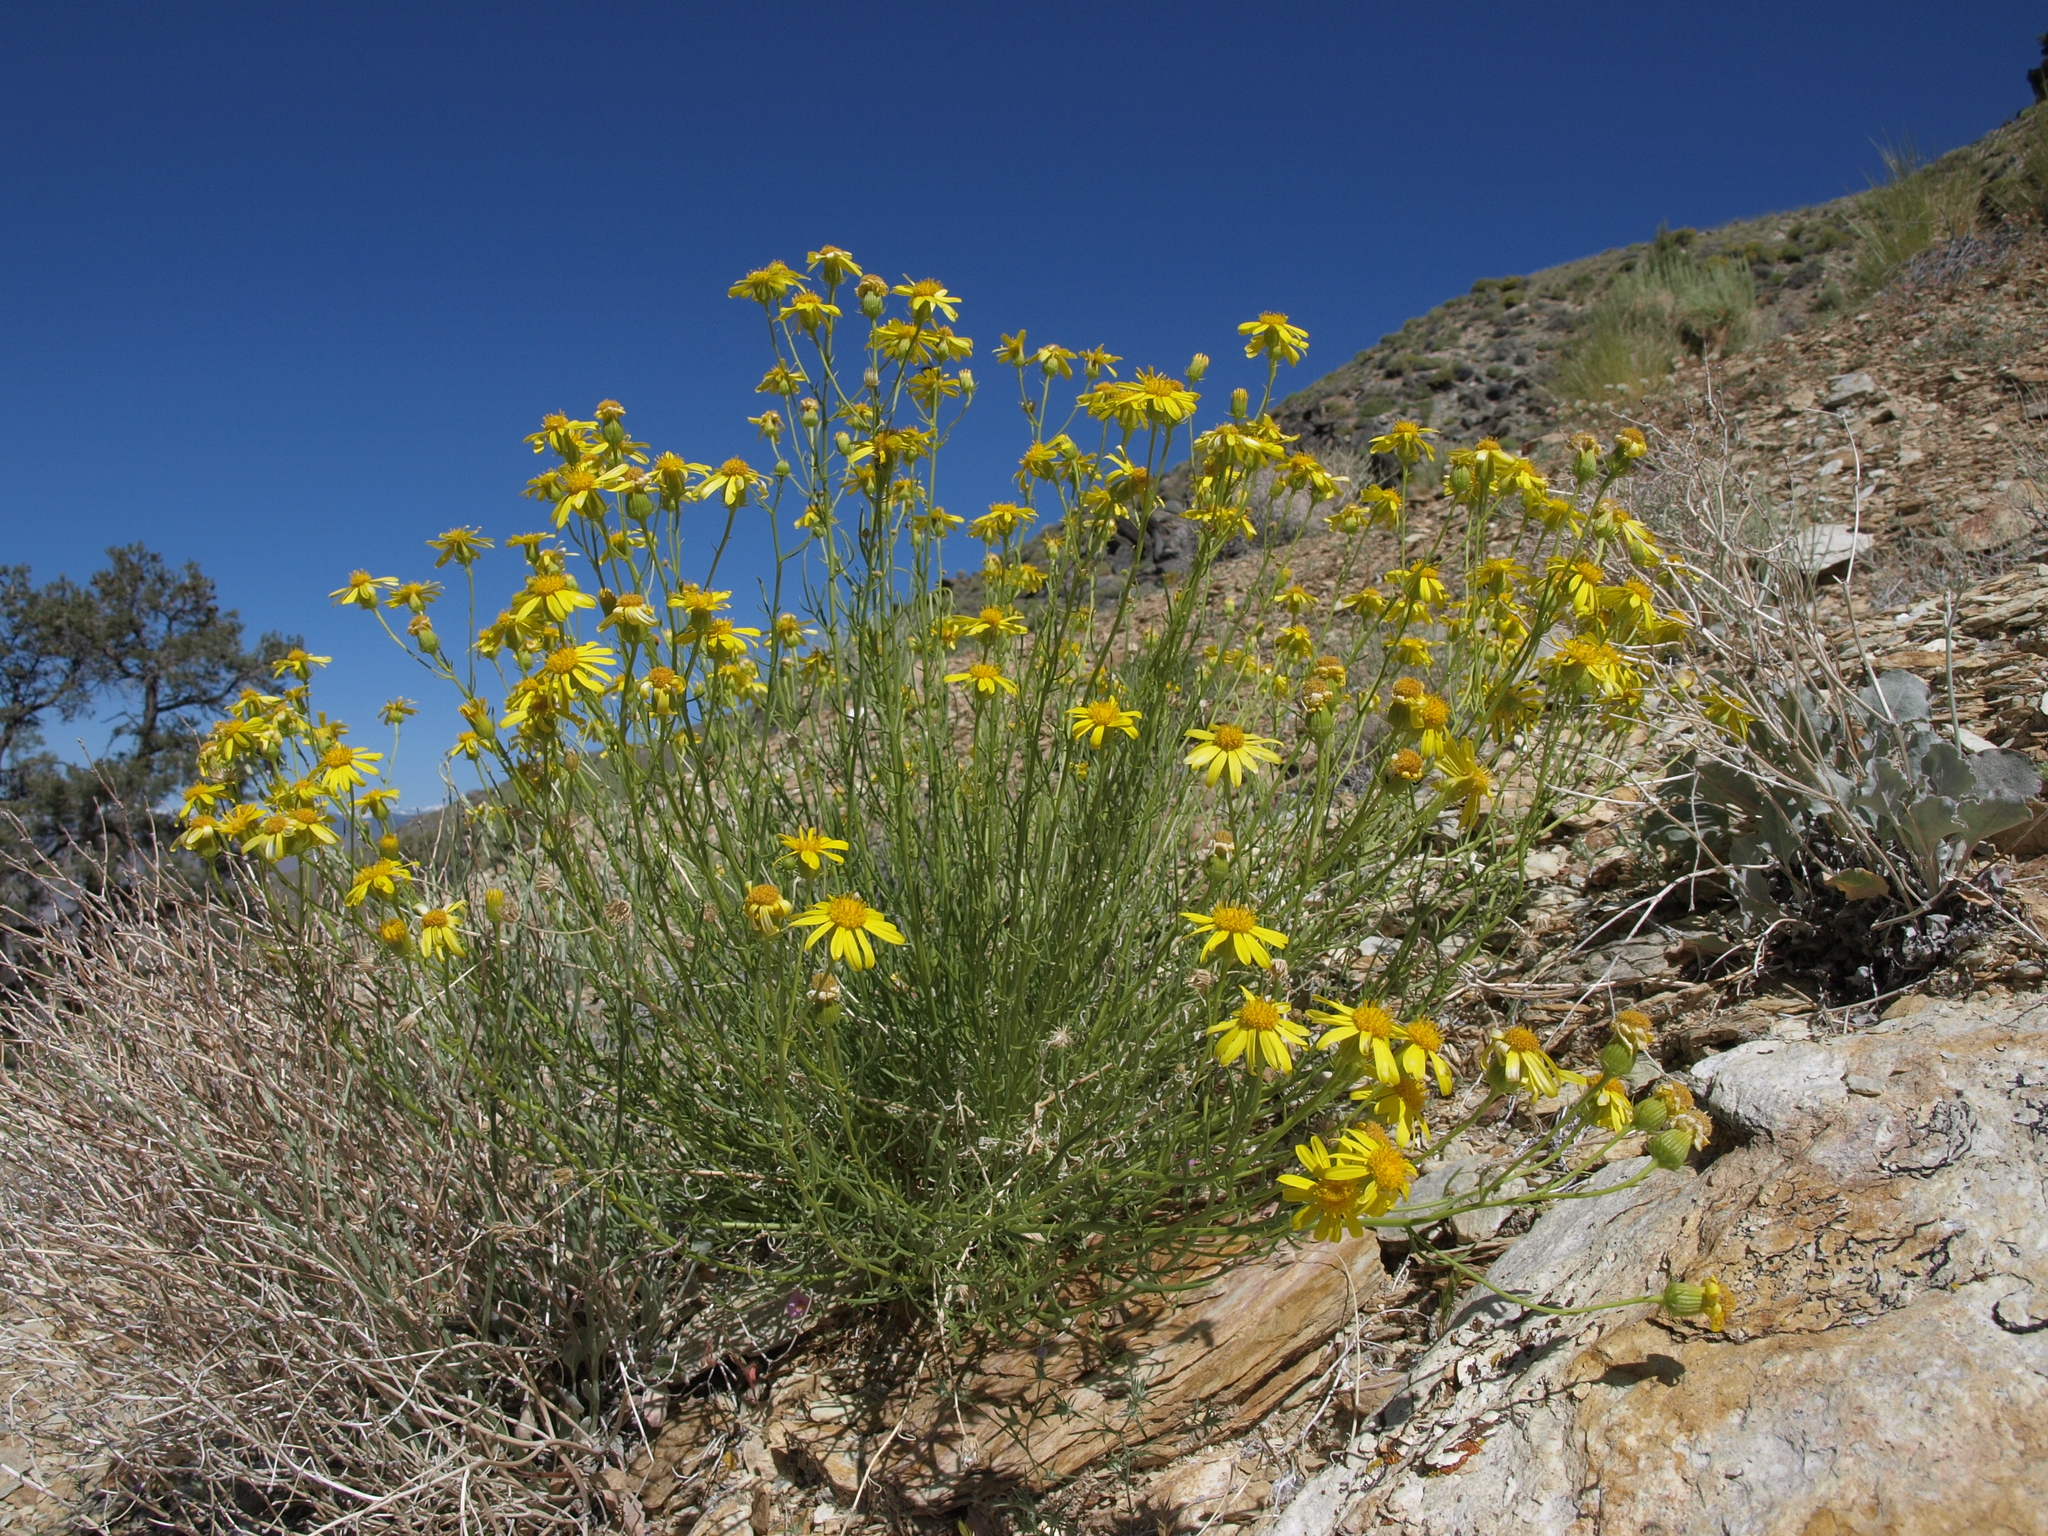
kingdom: Plantae
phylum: Tracheophyta
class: Magnoliopsida
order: Asterales
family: Asteraceae
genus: Senecio
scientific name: Senecio flaccidus
